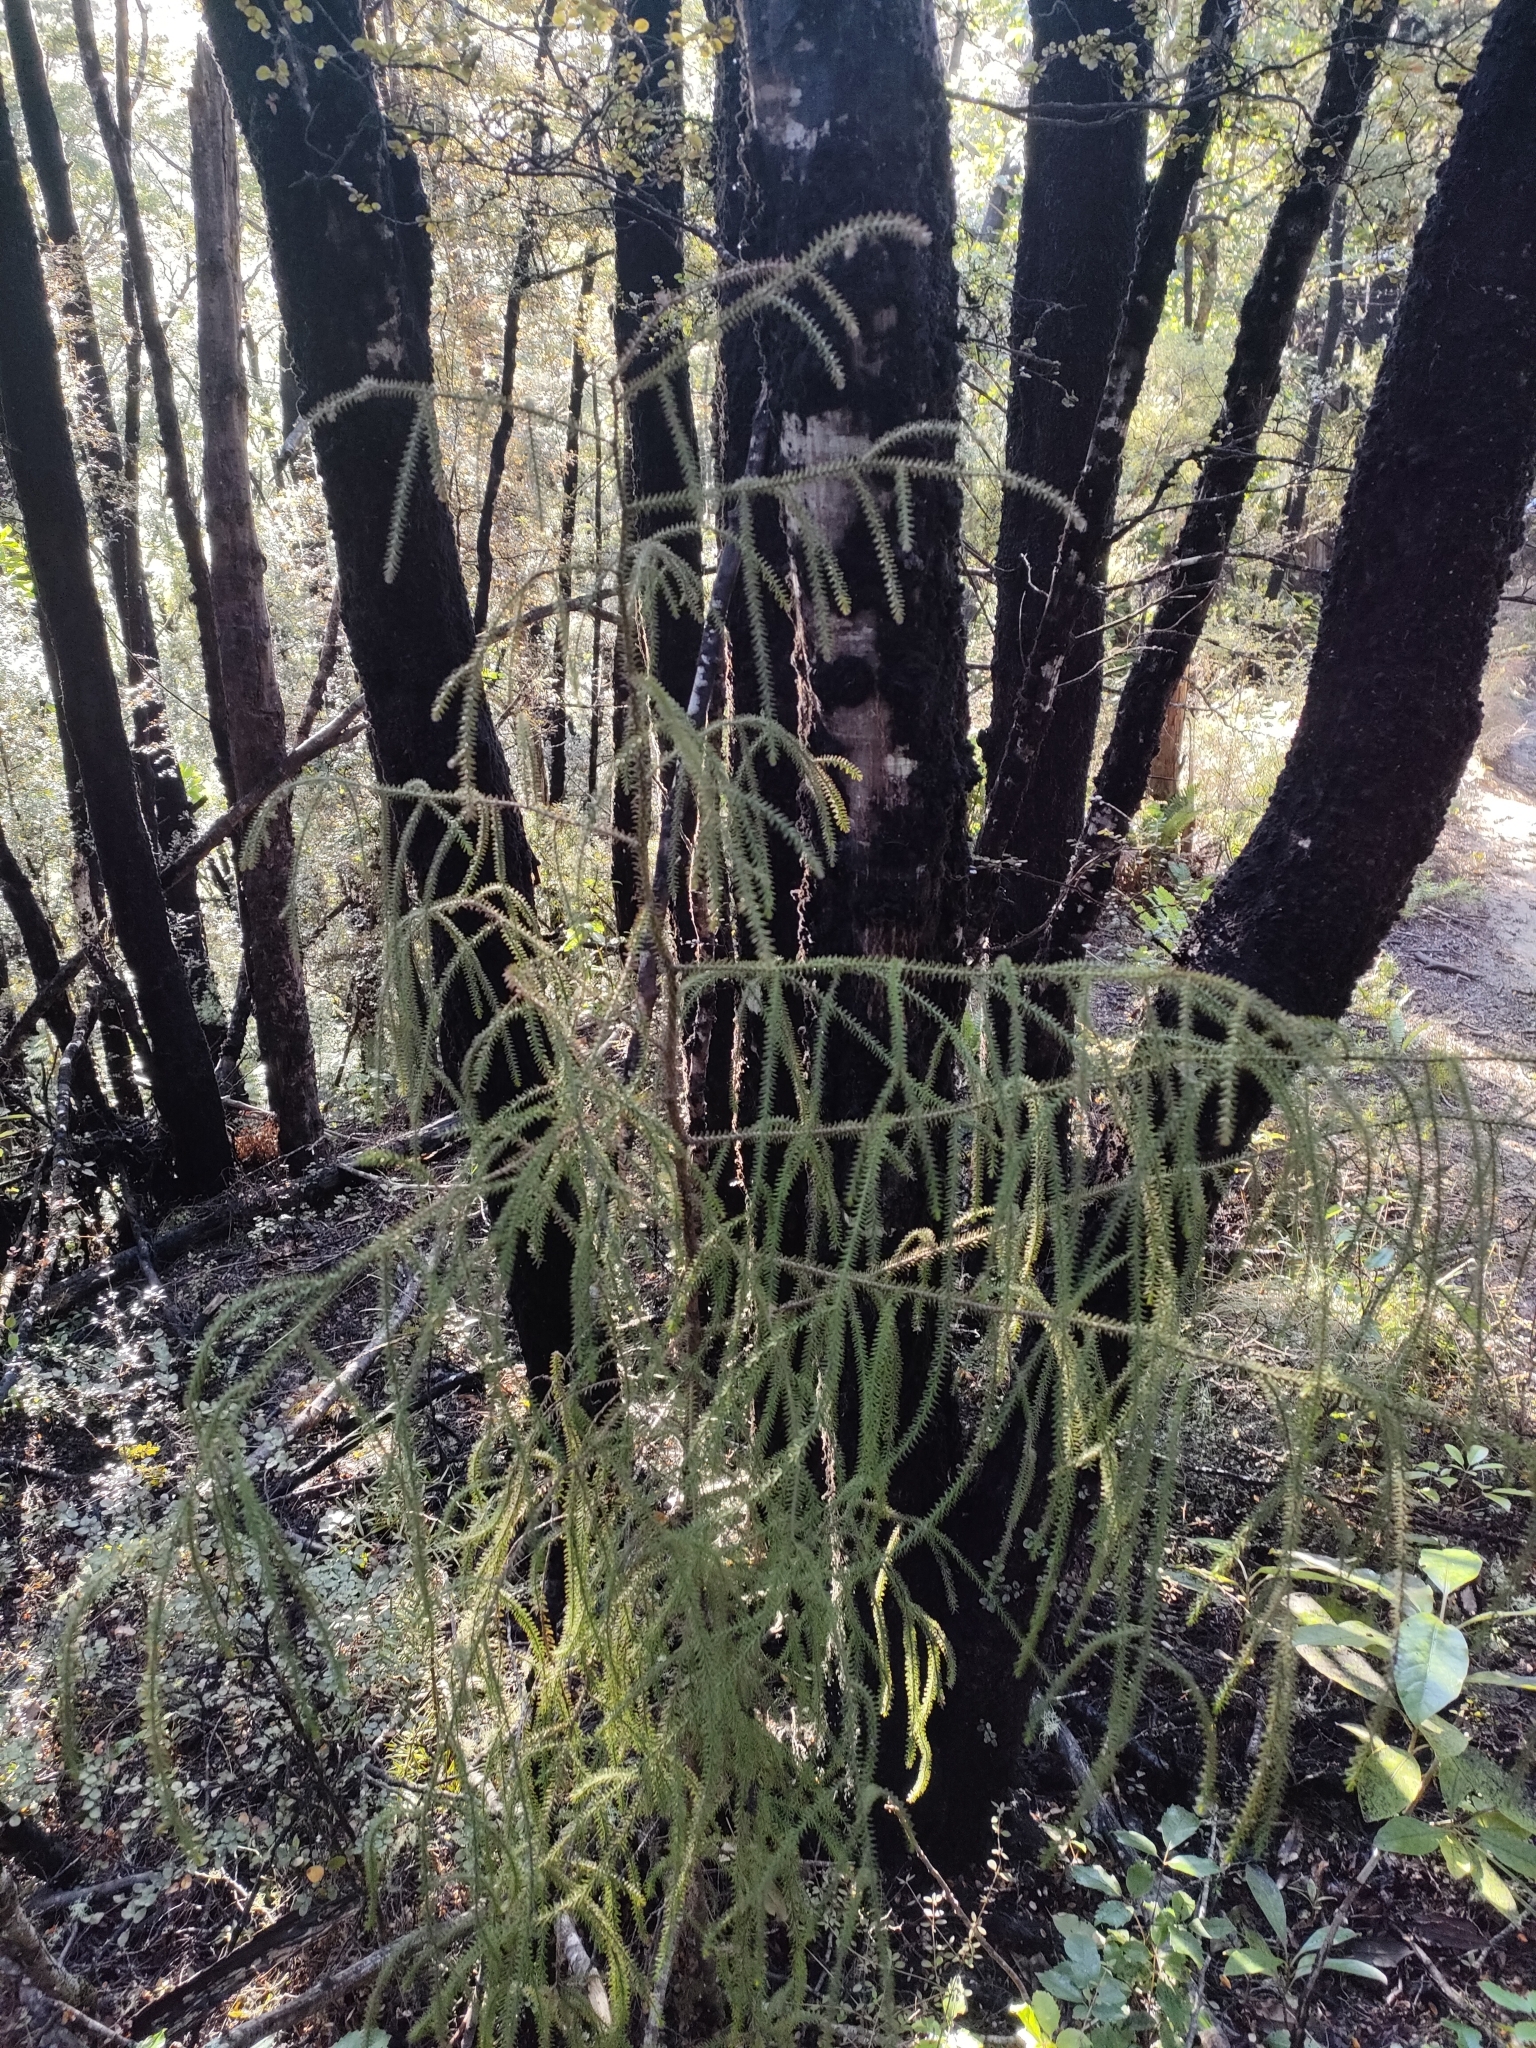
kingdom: Plantae
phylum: Tracheophyta
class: Pinopsida
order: Pinales
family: Podocarpaceae
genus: Dacrydium
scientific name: Dacrydium cupressinum
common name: Red pine
